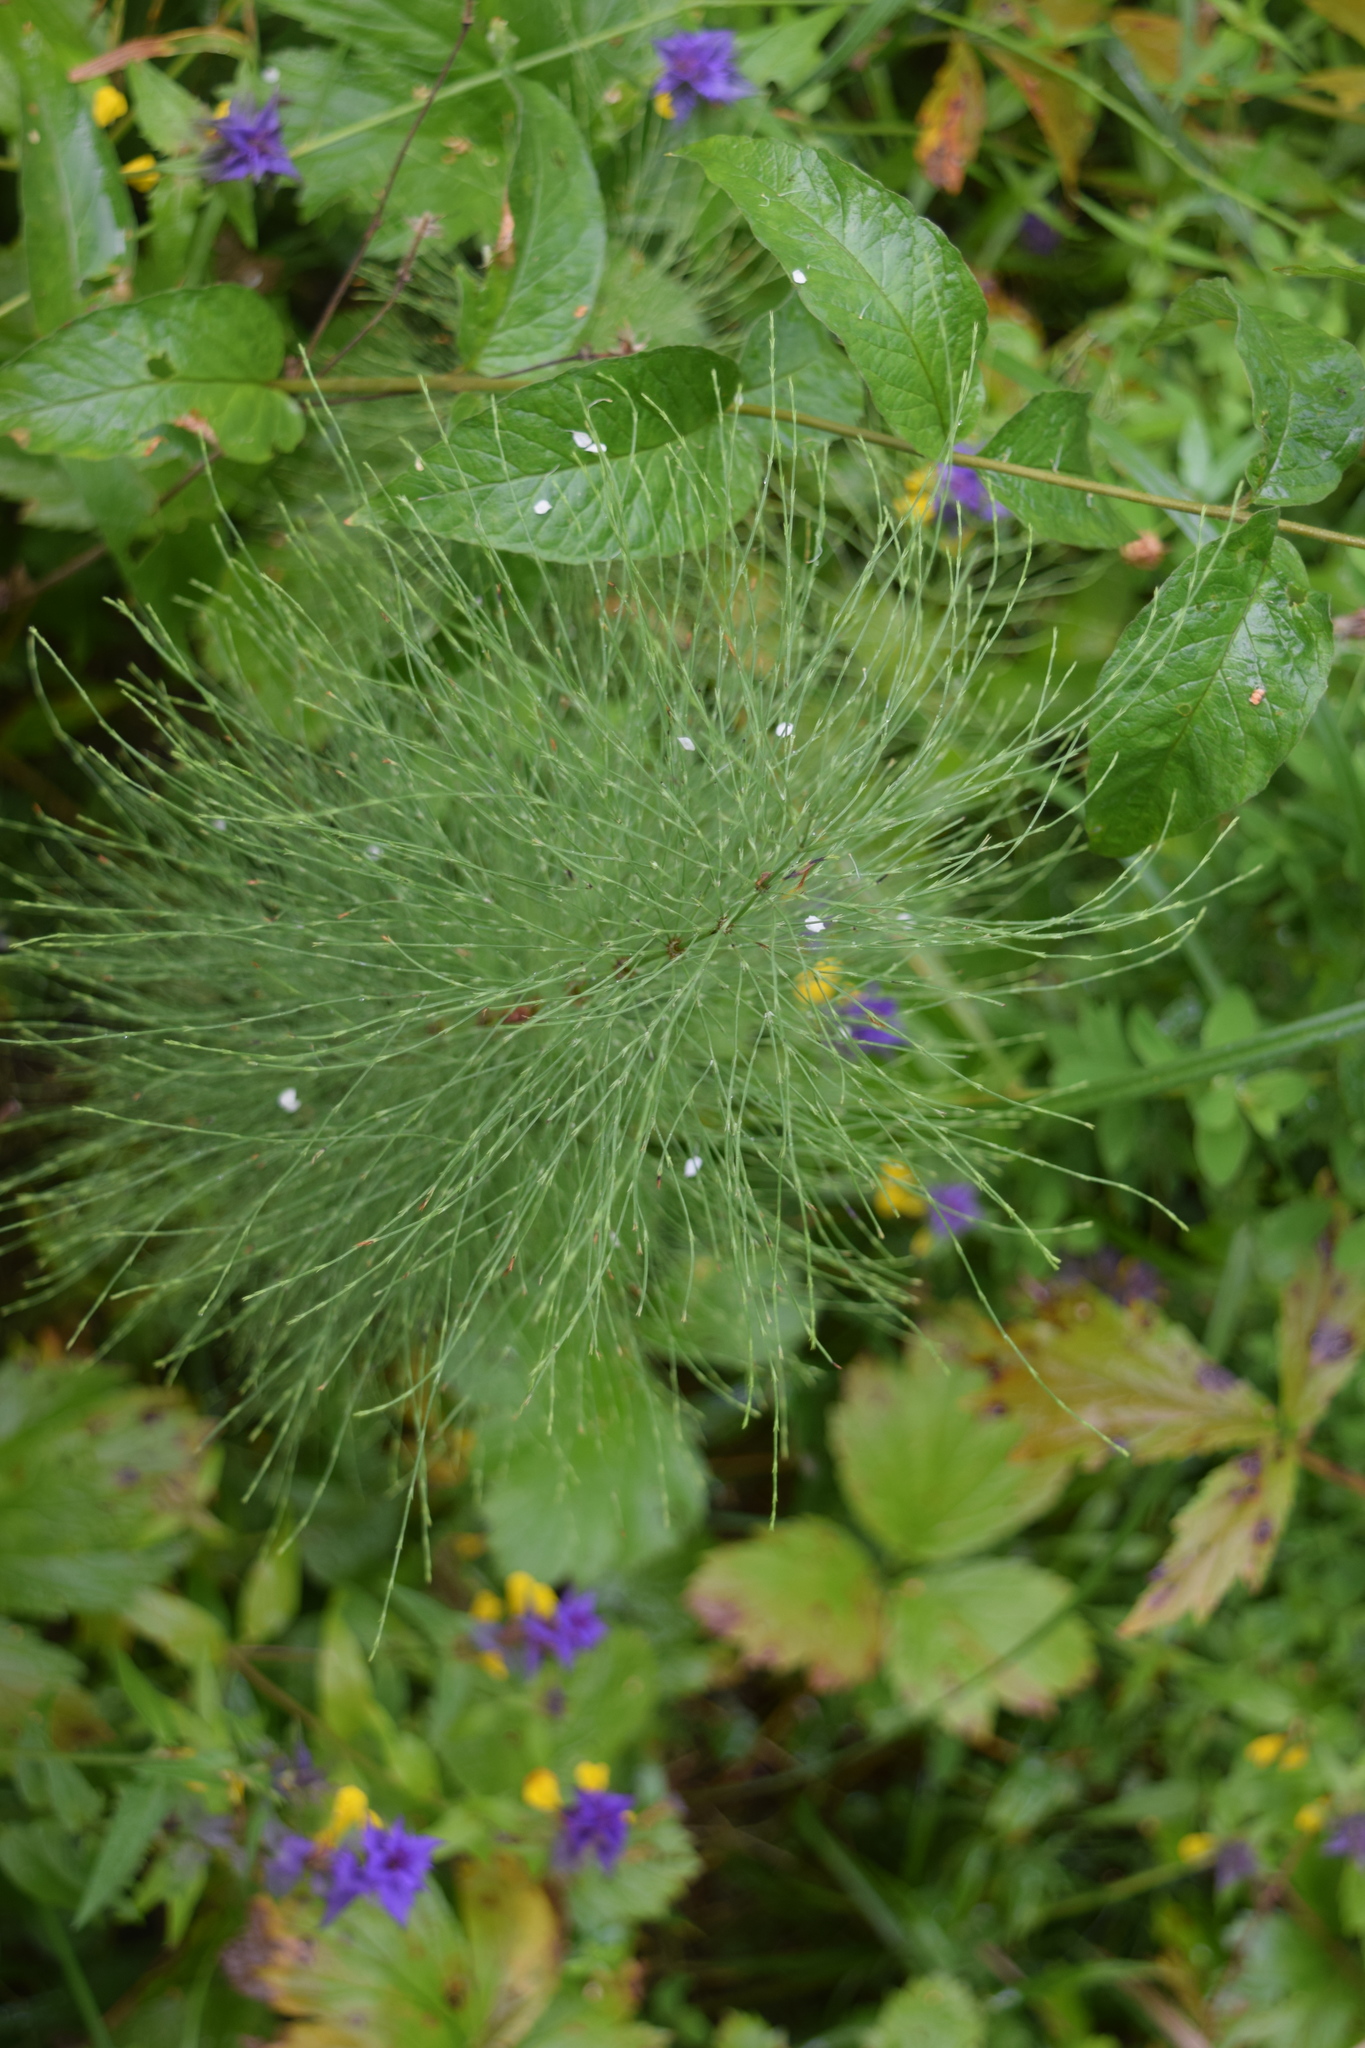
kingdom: Plantae
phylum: Tracheophyta
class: Polypodiopsida
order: Equisetales
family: Equisetaceae
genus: Equisetum
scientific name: Equisetum sylvaticum
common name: Wood horsetail
